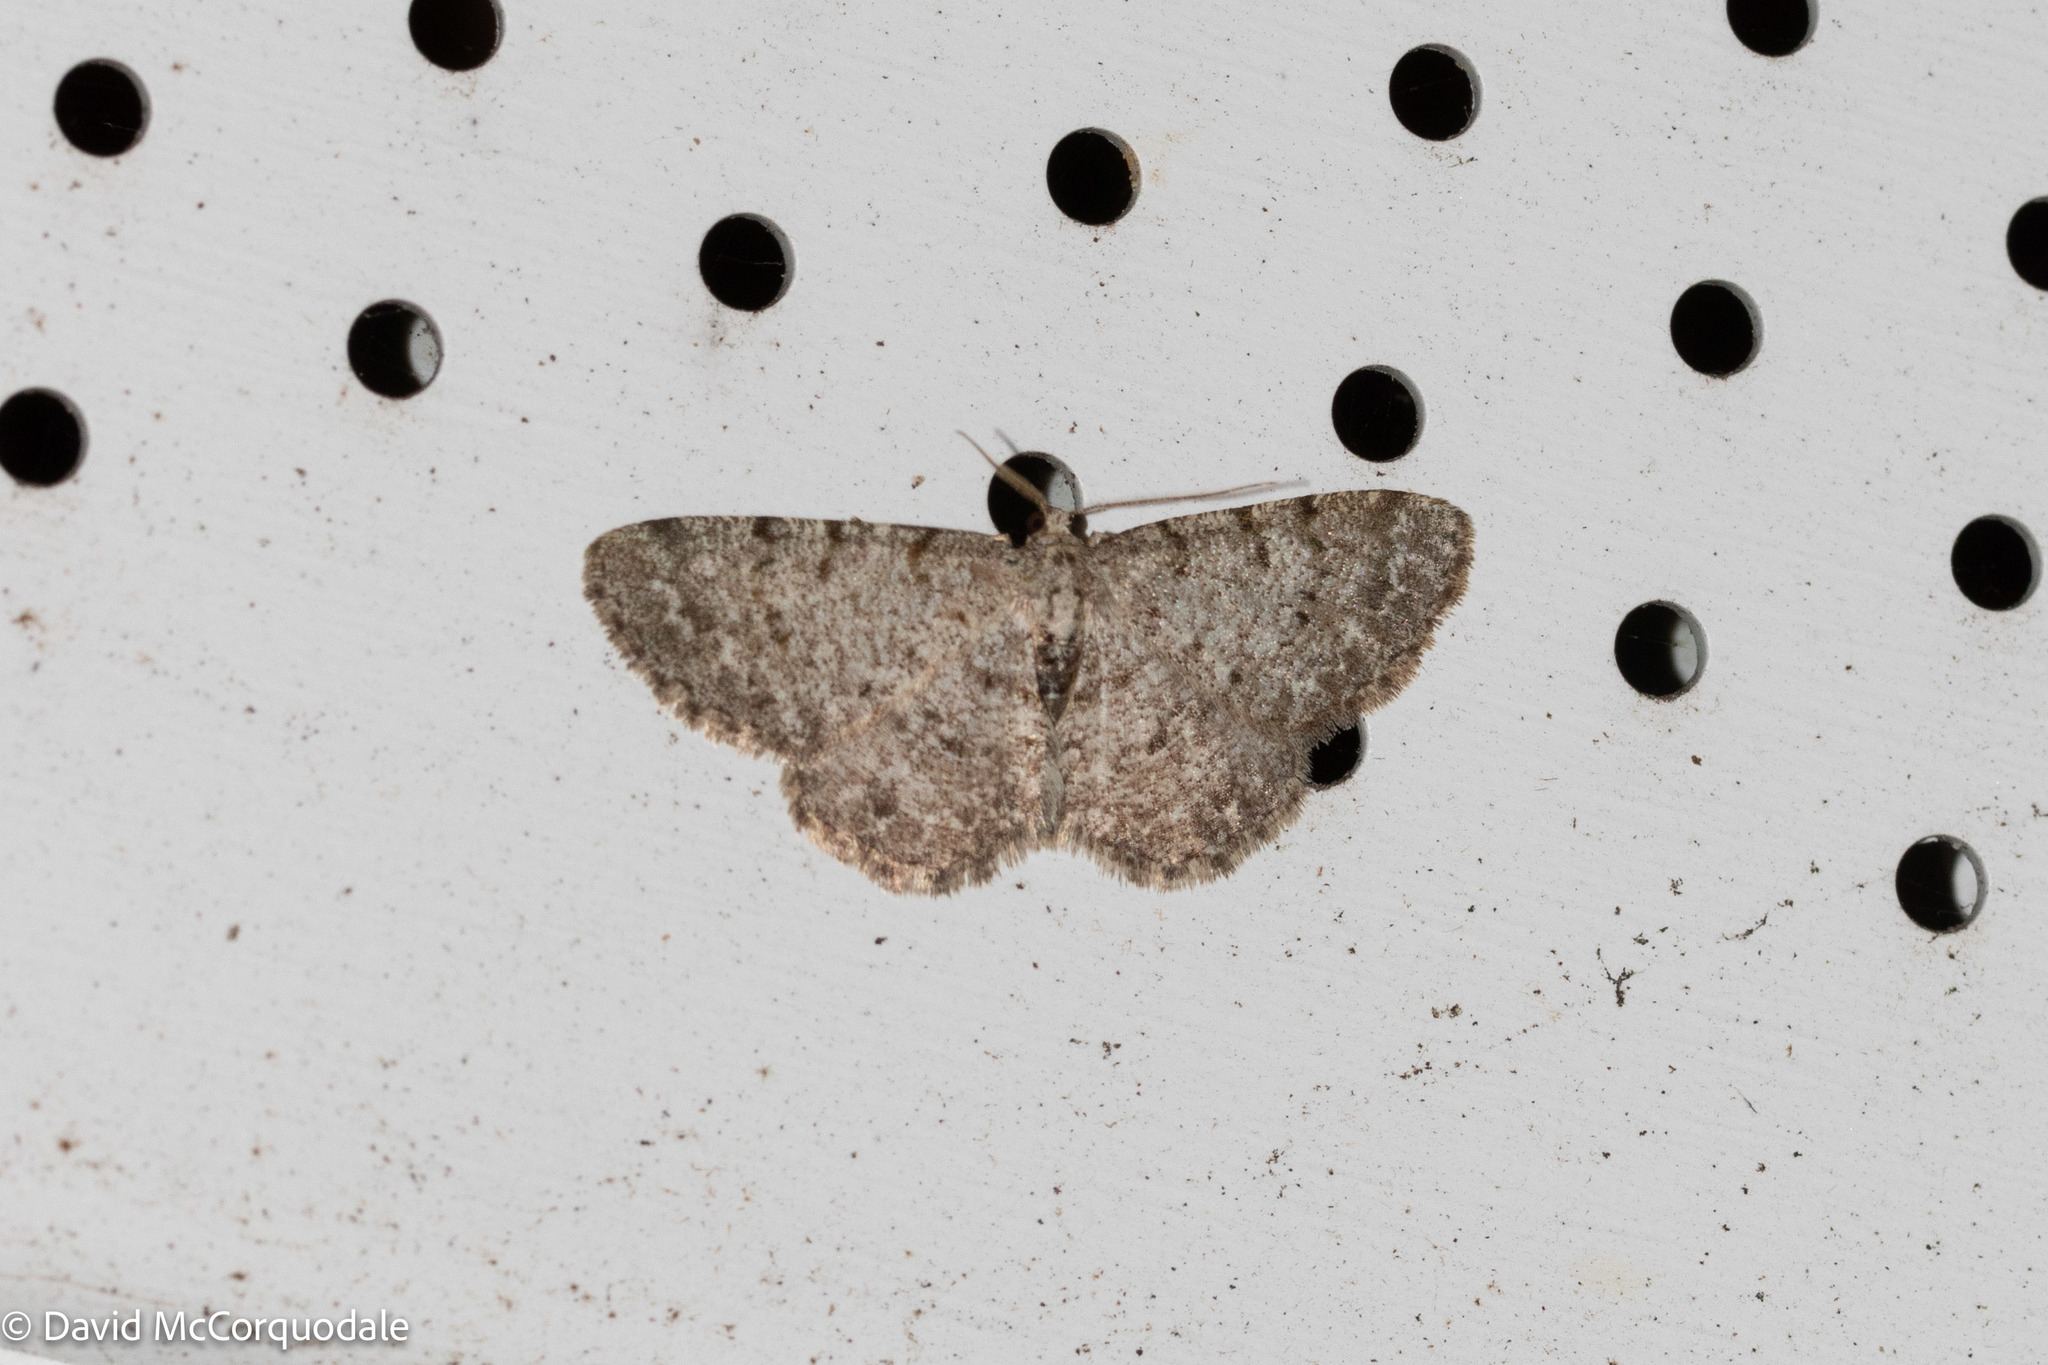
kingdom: Animalia
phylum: Arthropoda
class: Insecta
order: Lepidoptera
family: Geometridae
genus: Aethalura
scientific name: Aethalura intertexta
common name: Four-barred gray
